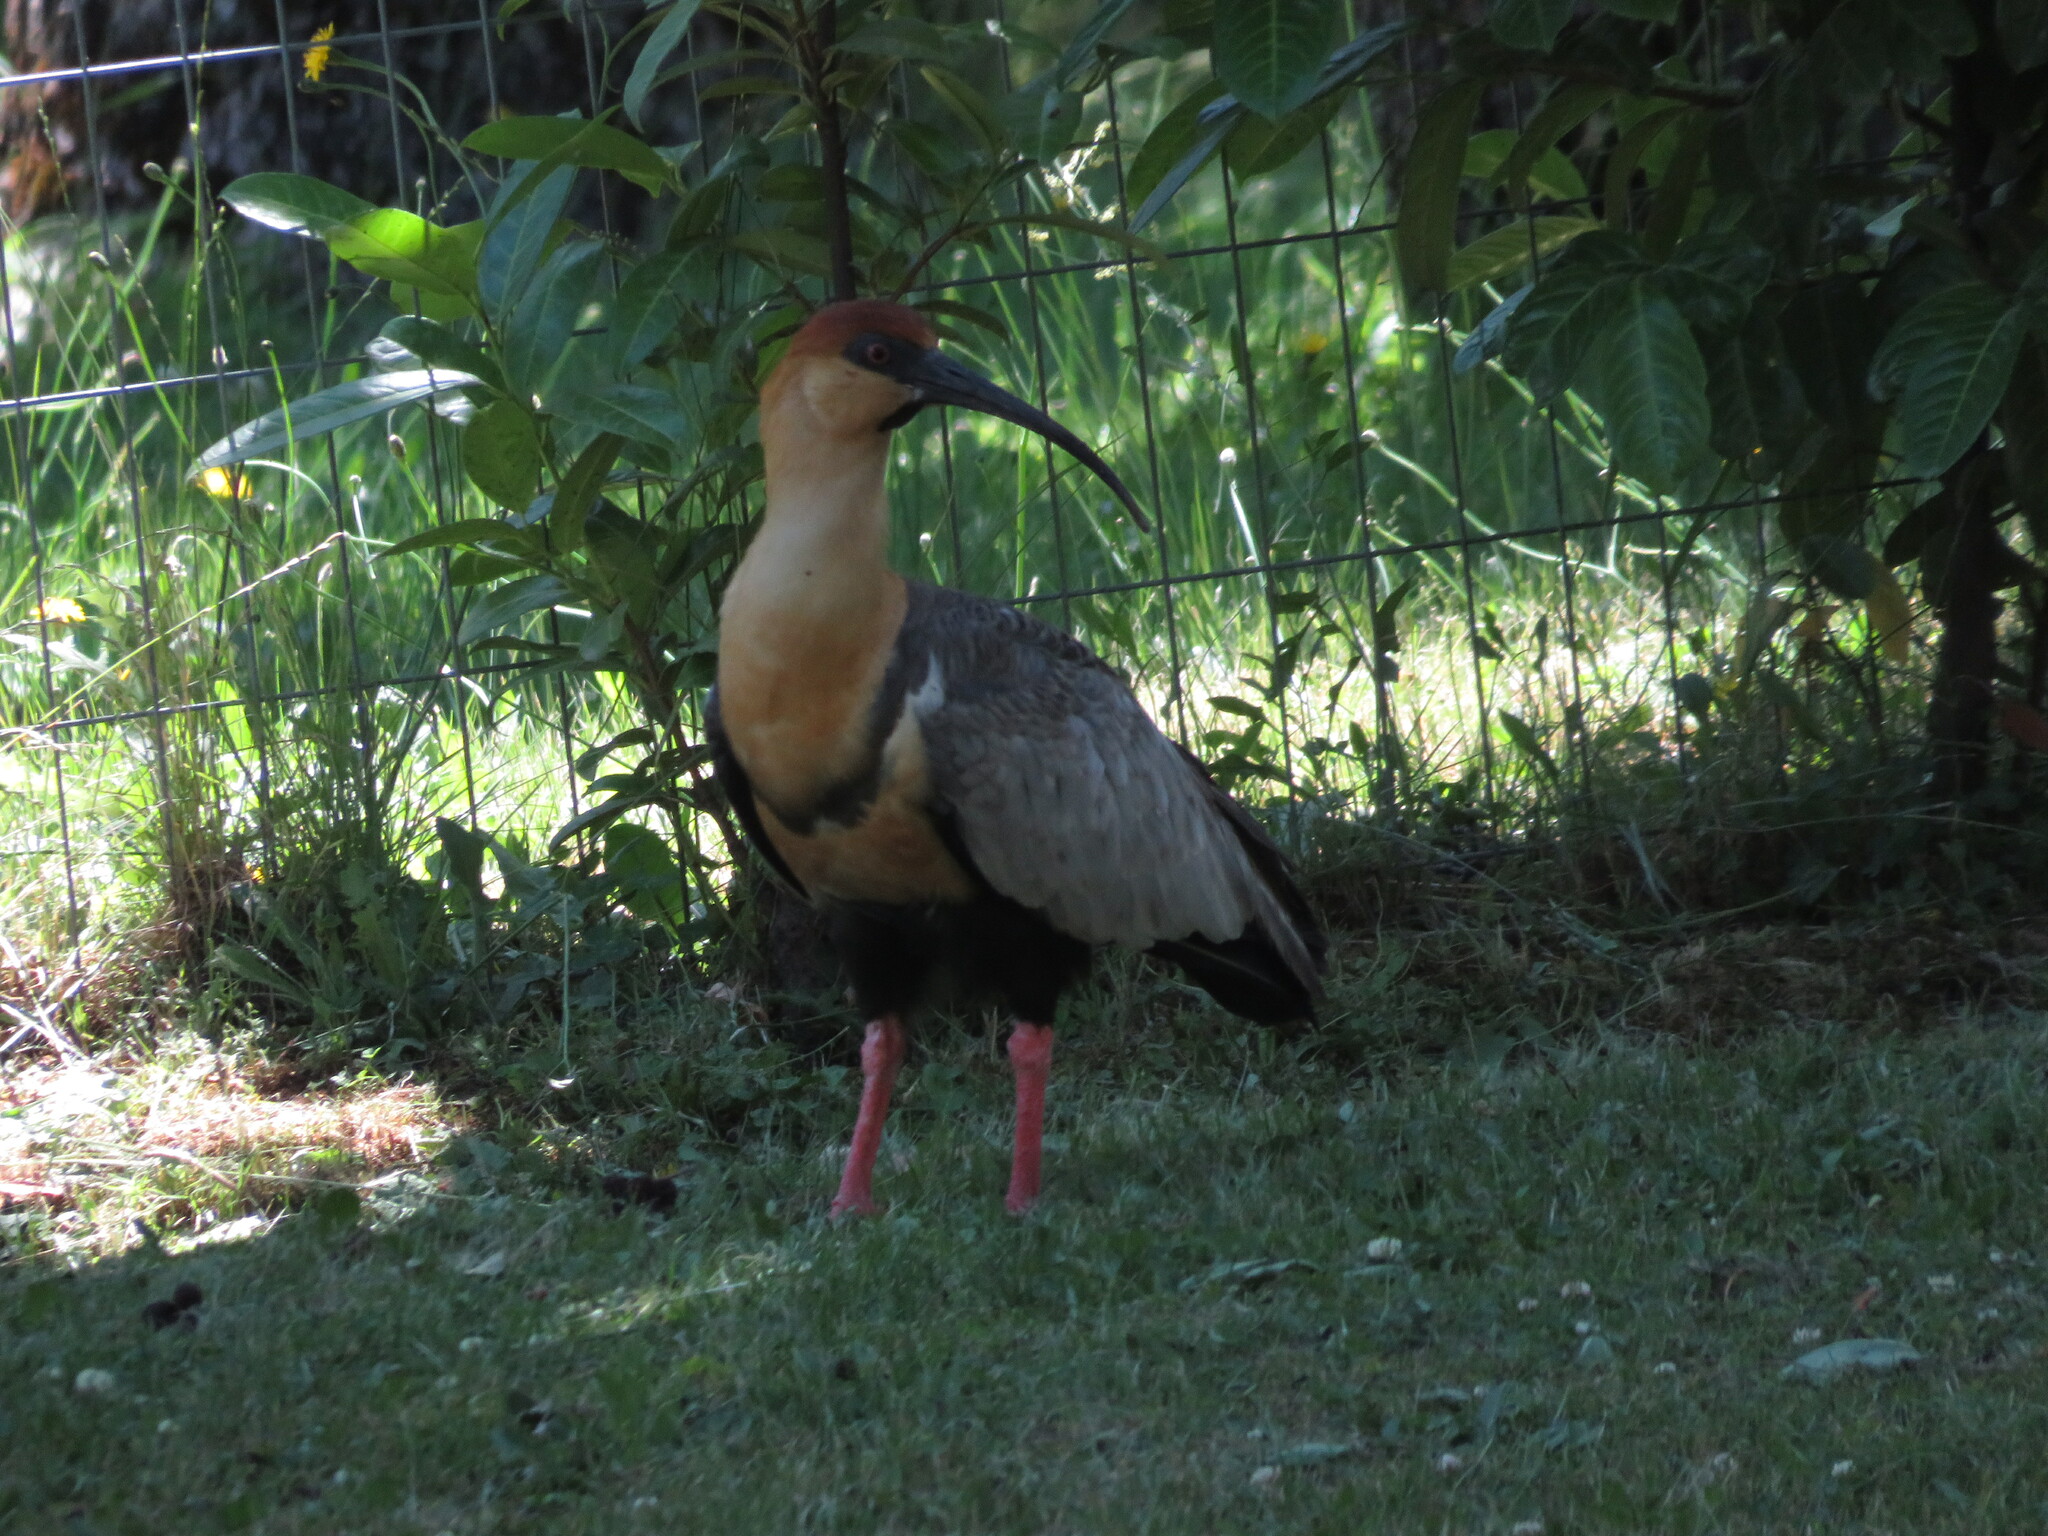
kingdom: Animalia
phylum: Chordata
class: Aves
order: Pelecaniformes
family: Threskiornithidae
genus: Theristicus
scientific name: Theristicus melanopis
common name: Black-faced ibis
